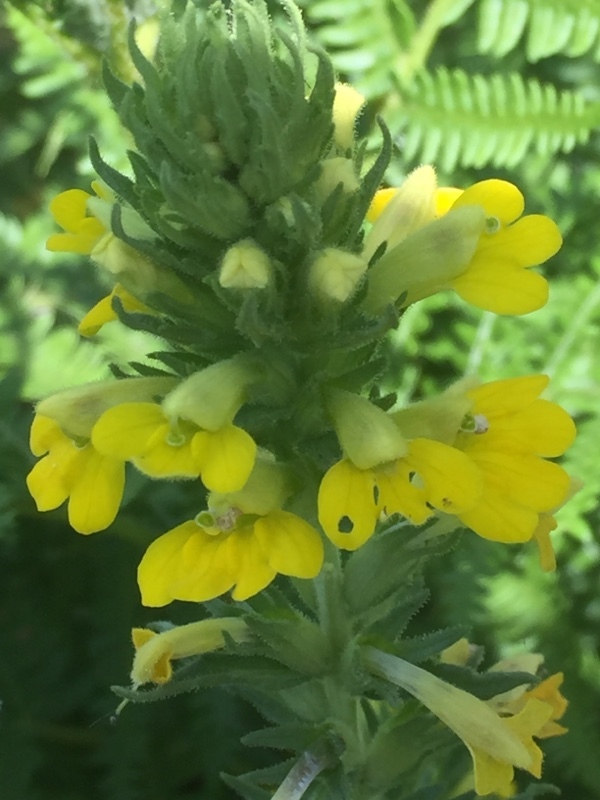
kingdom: Plantae
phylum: Tracheophyta
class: Magnoliopsida
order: Lamiales
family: Orobanchaceae
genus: Bellardia
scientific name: Bellardia viscosa
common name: Sticky parentucellia
